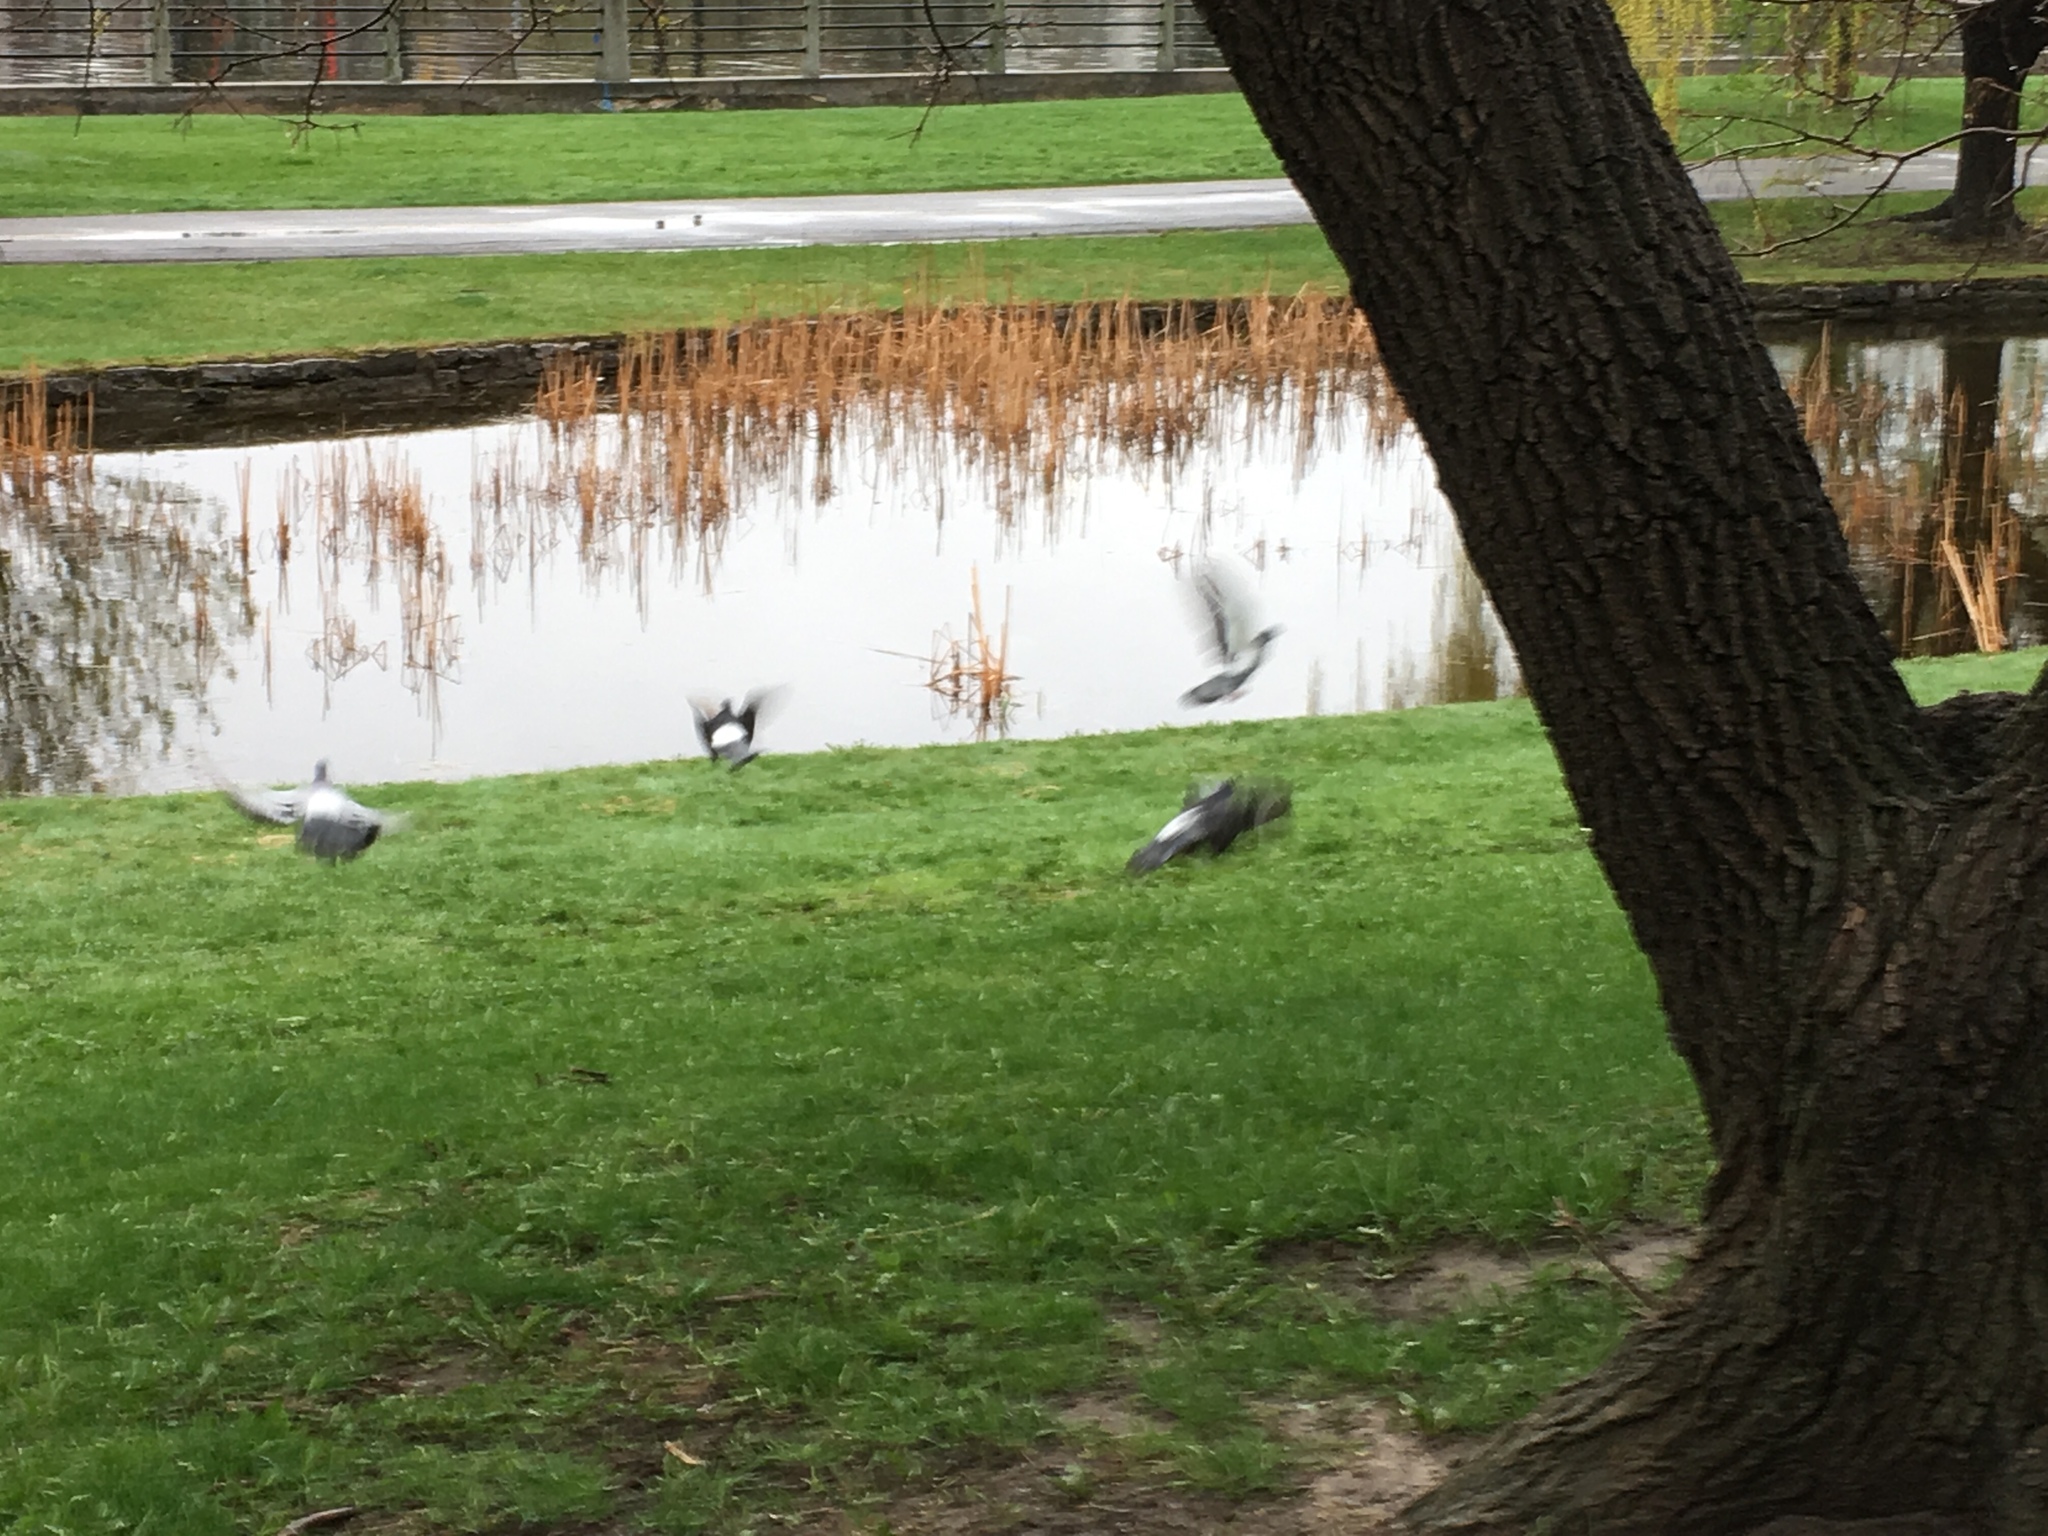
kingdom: Animalia
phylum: Chordata
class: Aves
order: Columbiformes
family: Columbidae
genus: Columba
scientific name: Columba livia
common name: Rock pigeon
